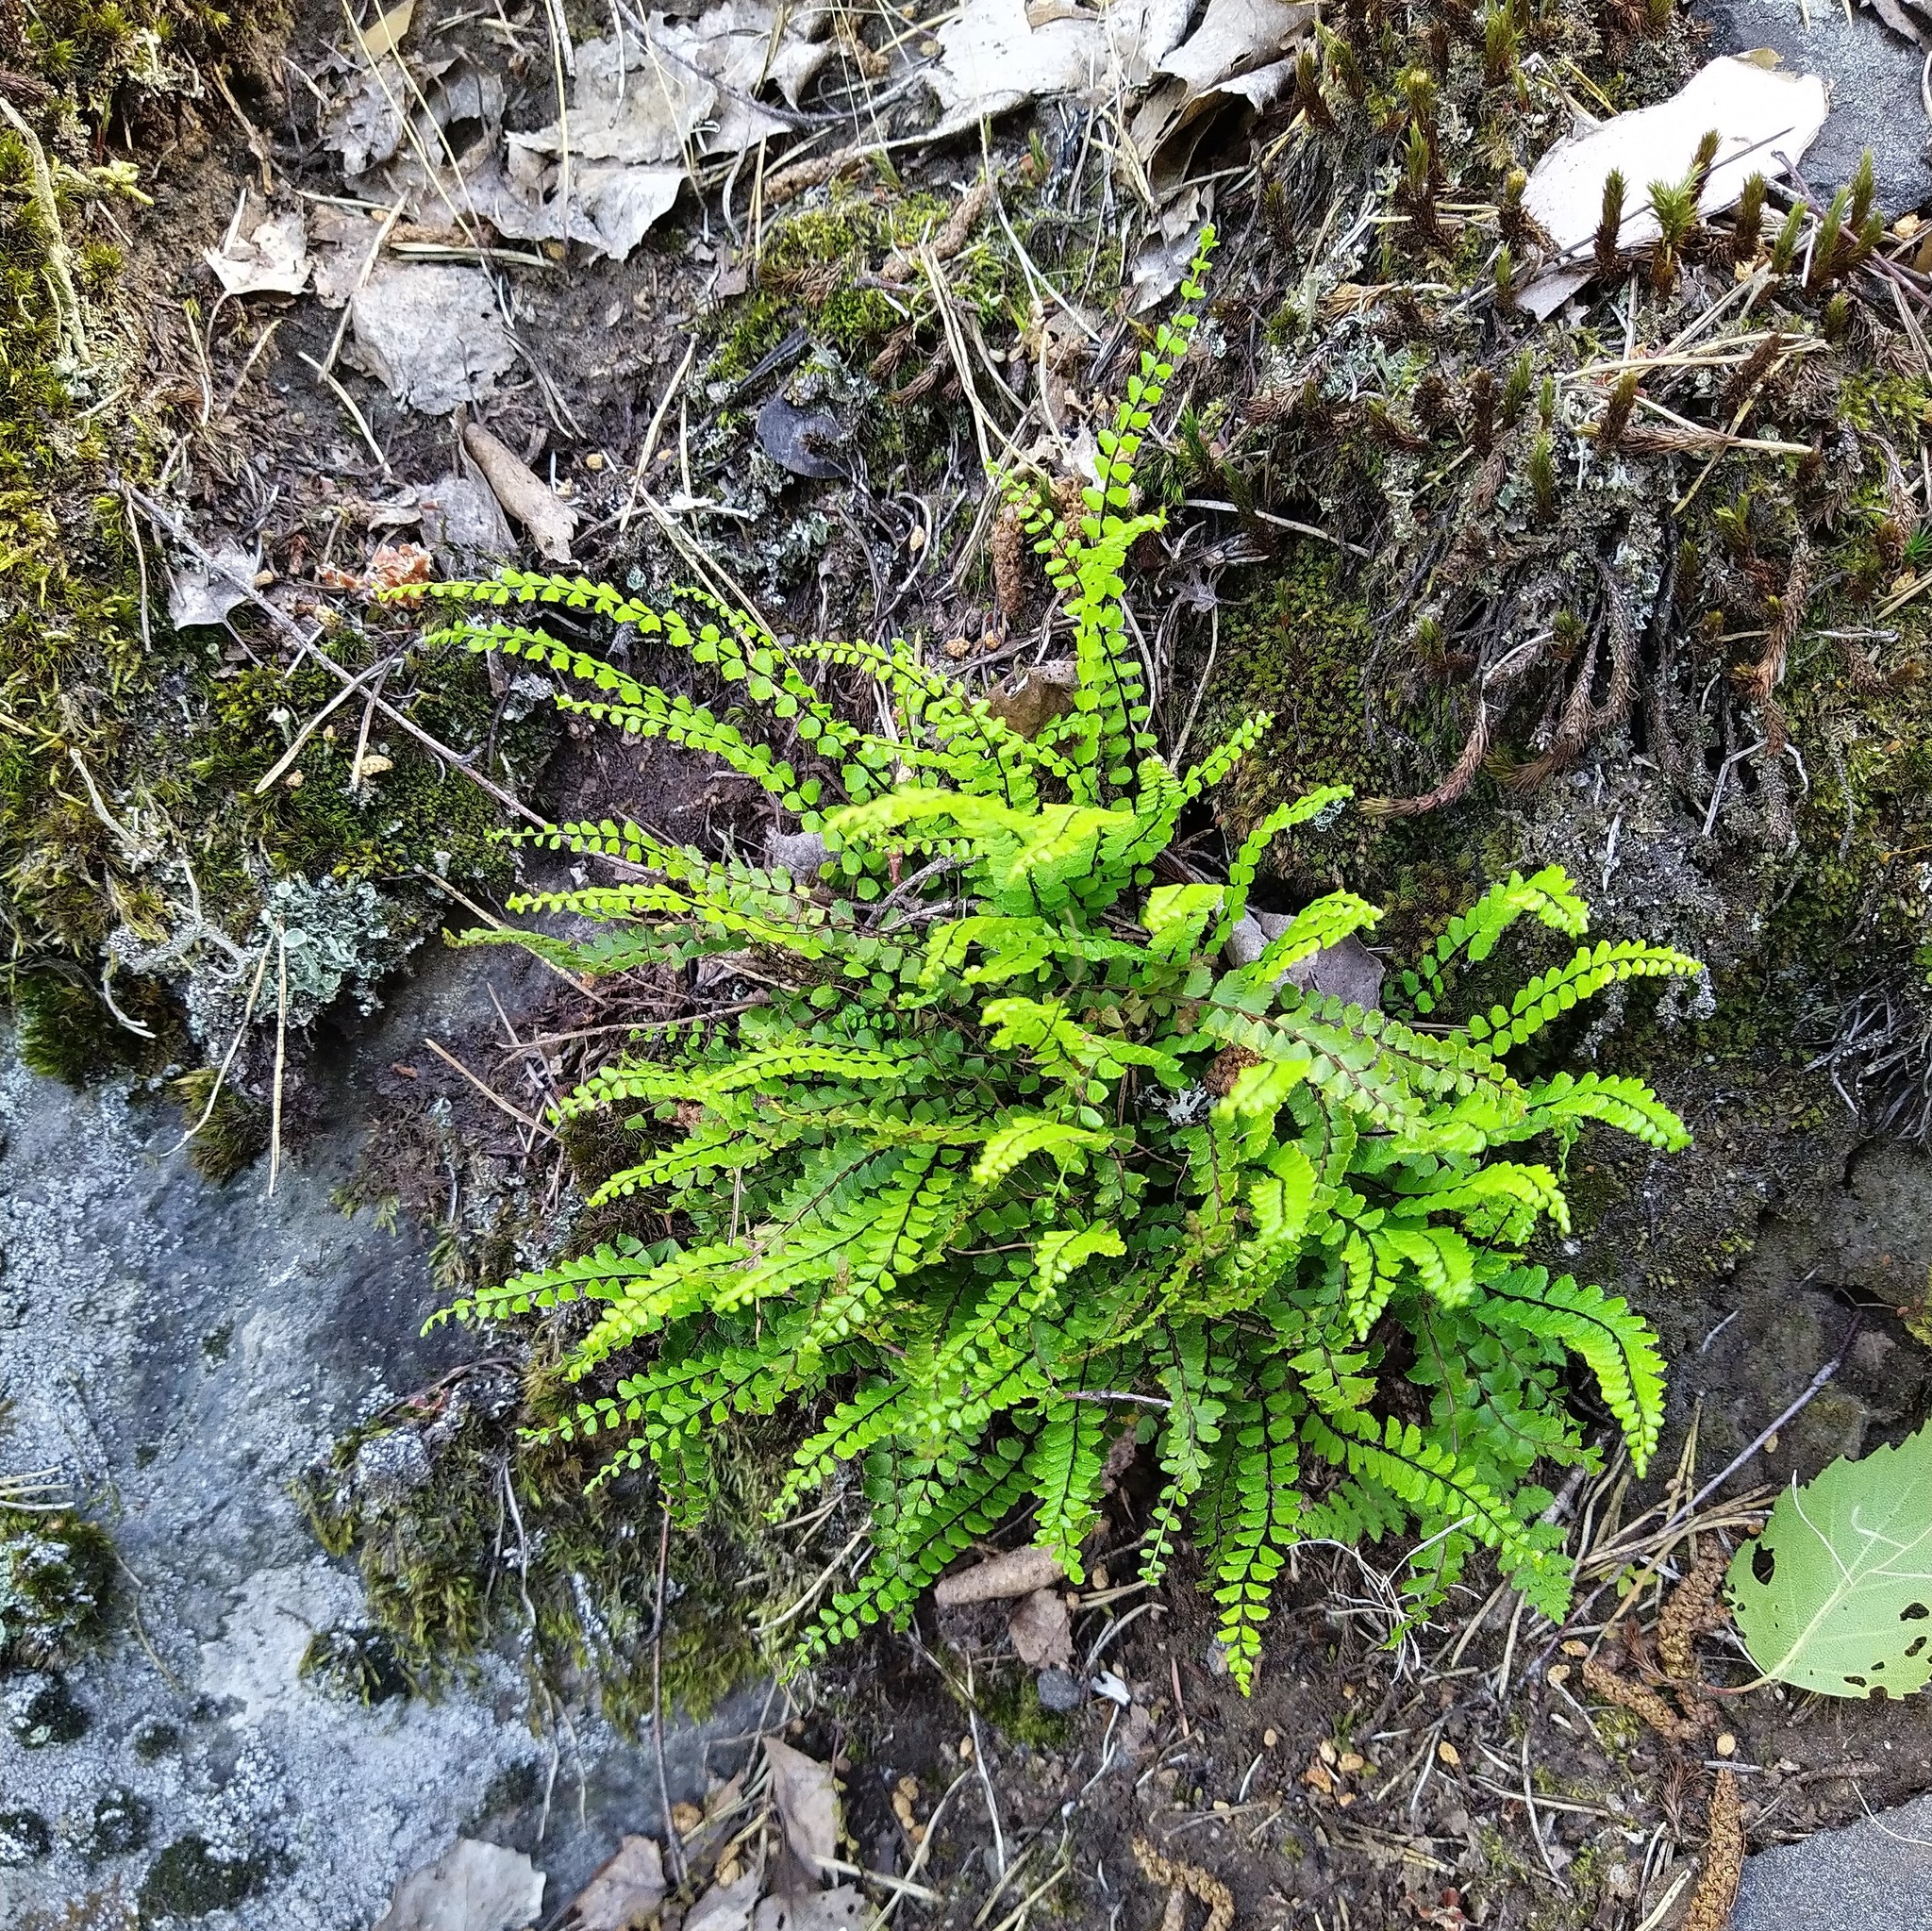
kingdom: Plantae
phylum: Tracheophyta
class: Polypodiopsida
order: Polypodiales
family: Aspleniaceae
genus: Asplenium
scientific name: Asplenium trichomanes
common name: Maidenhair spleenwort
